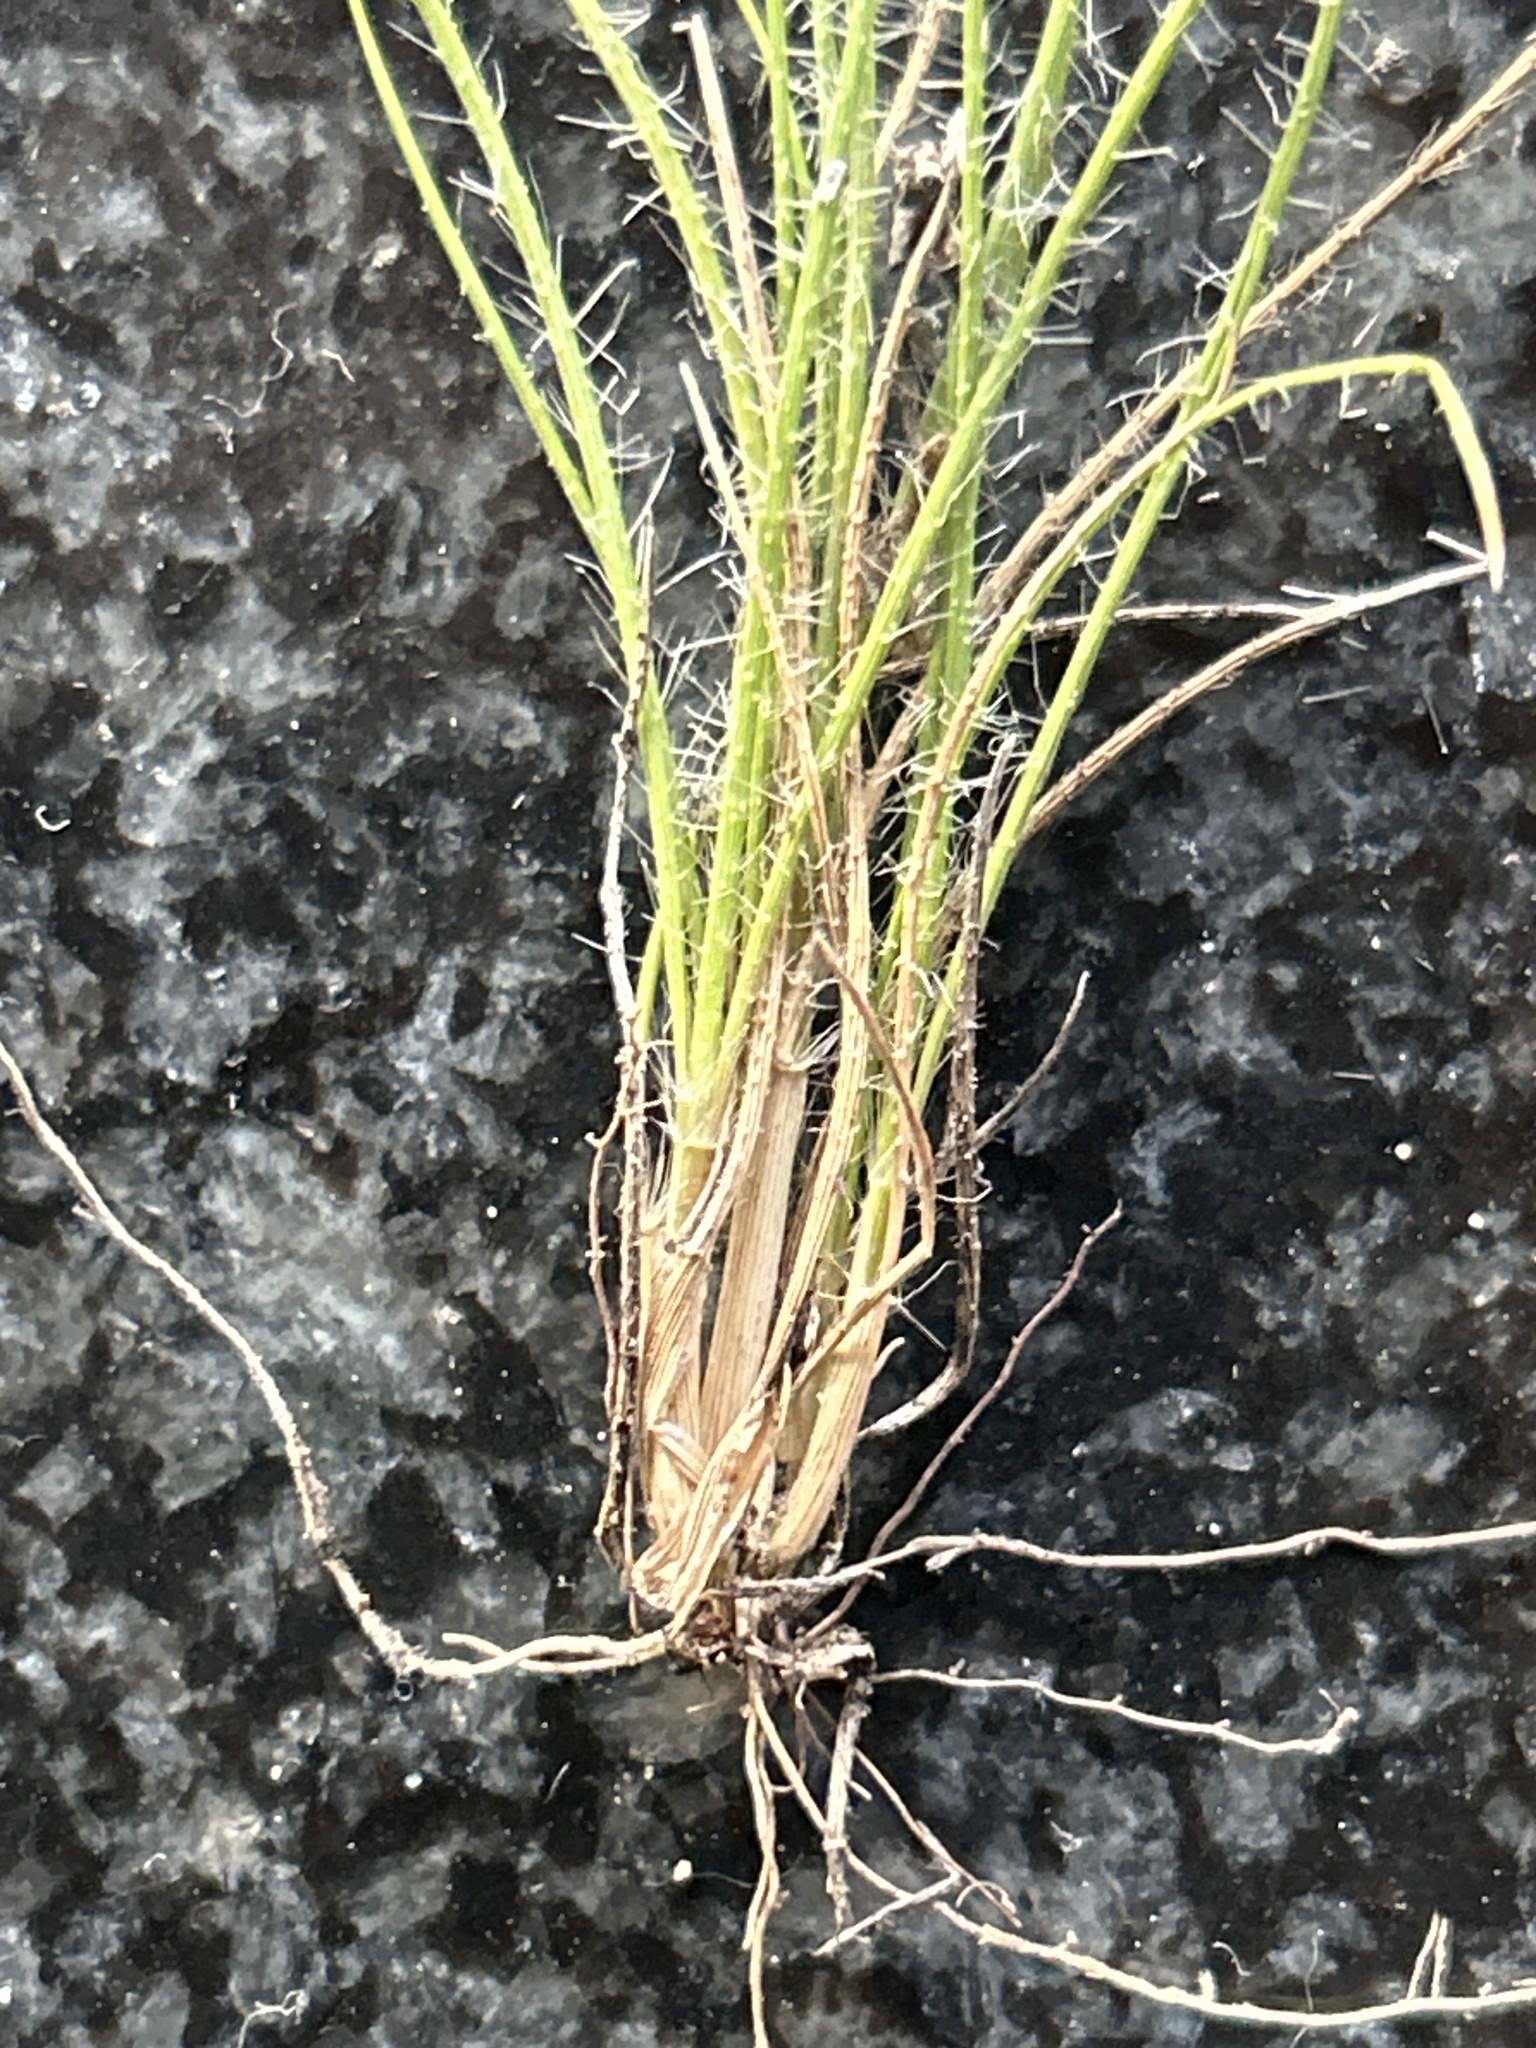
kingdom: Plantae
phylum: Tracheophyta
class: Liliopsida
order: Poales
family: Poaceae
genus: Tribolium
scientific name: Tribolium ciliare
